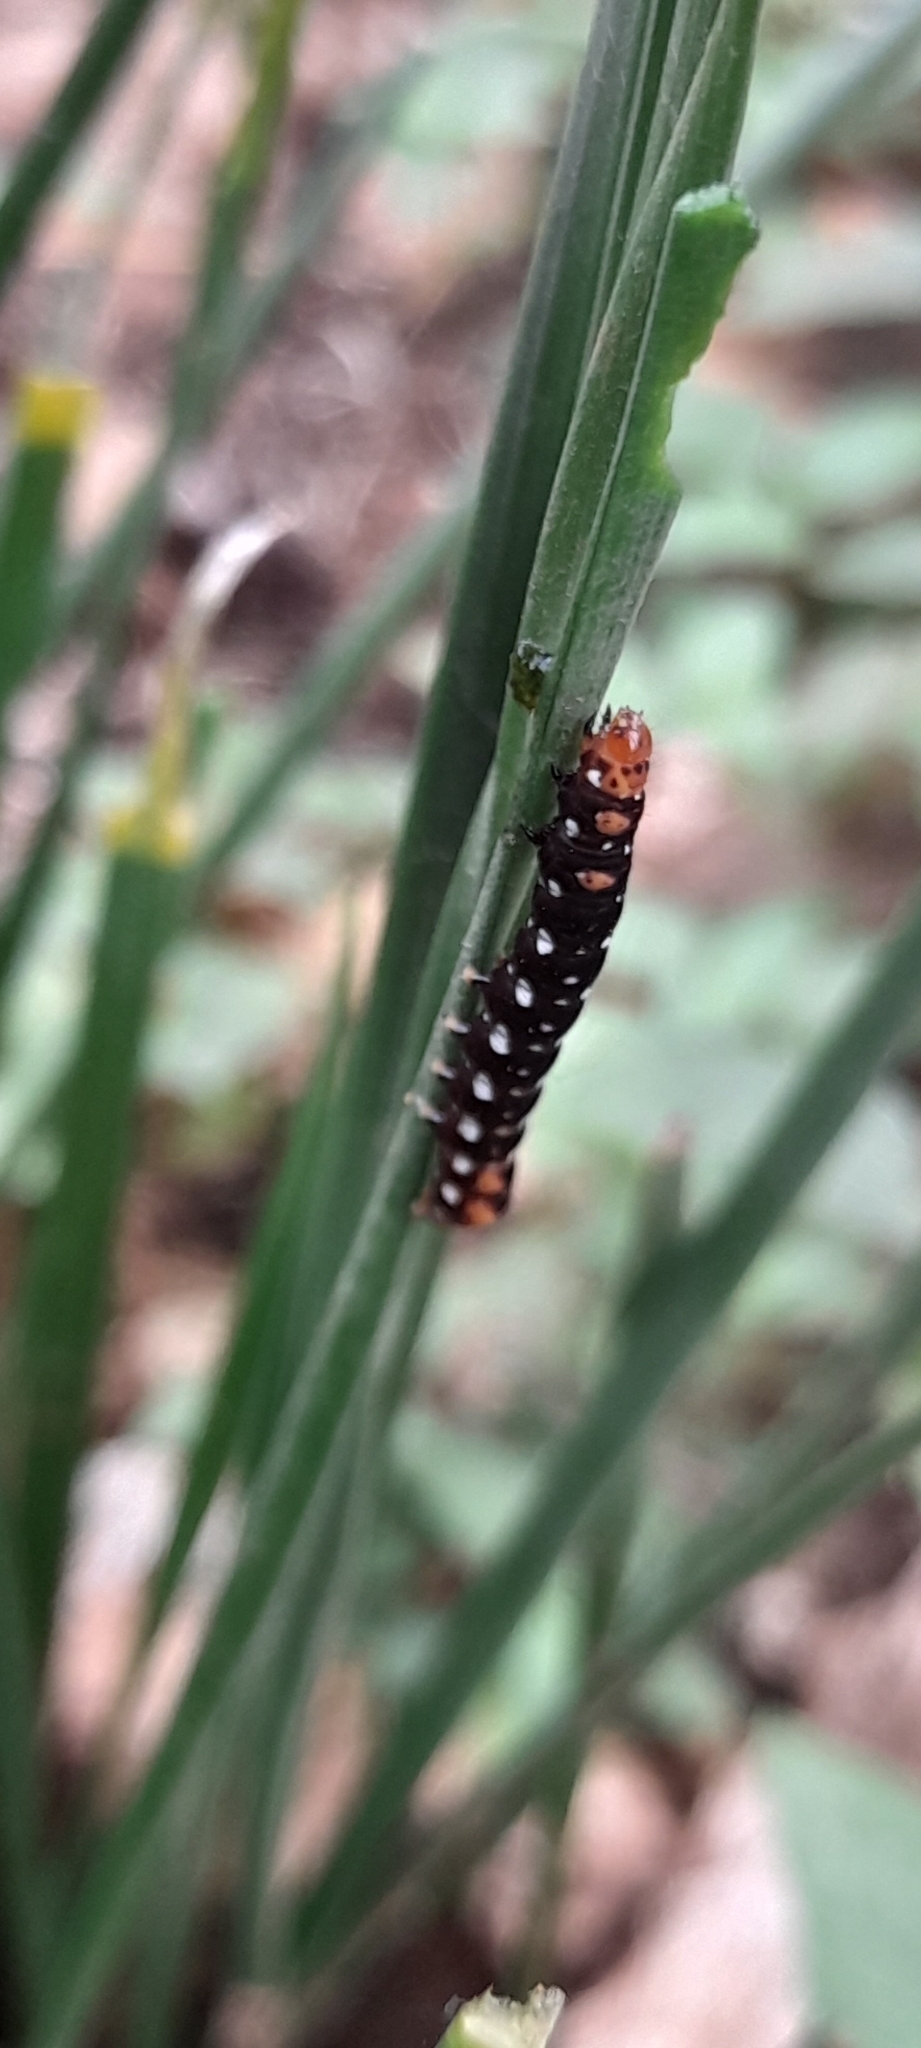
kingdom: Animalia
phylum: Arthropoda
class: Insecta
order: Lepidoptera
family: Noctuidae
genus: Polytela
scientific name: Polytela gloriosae
